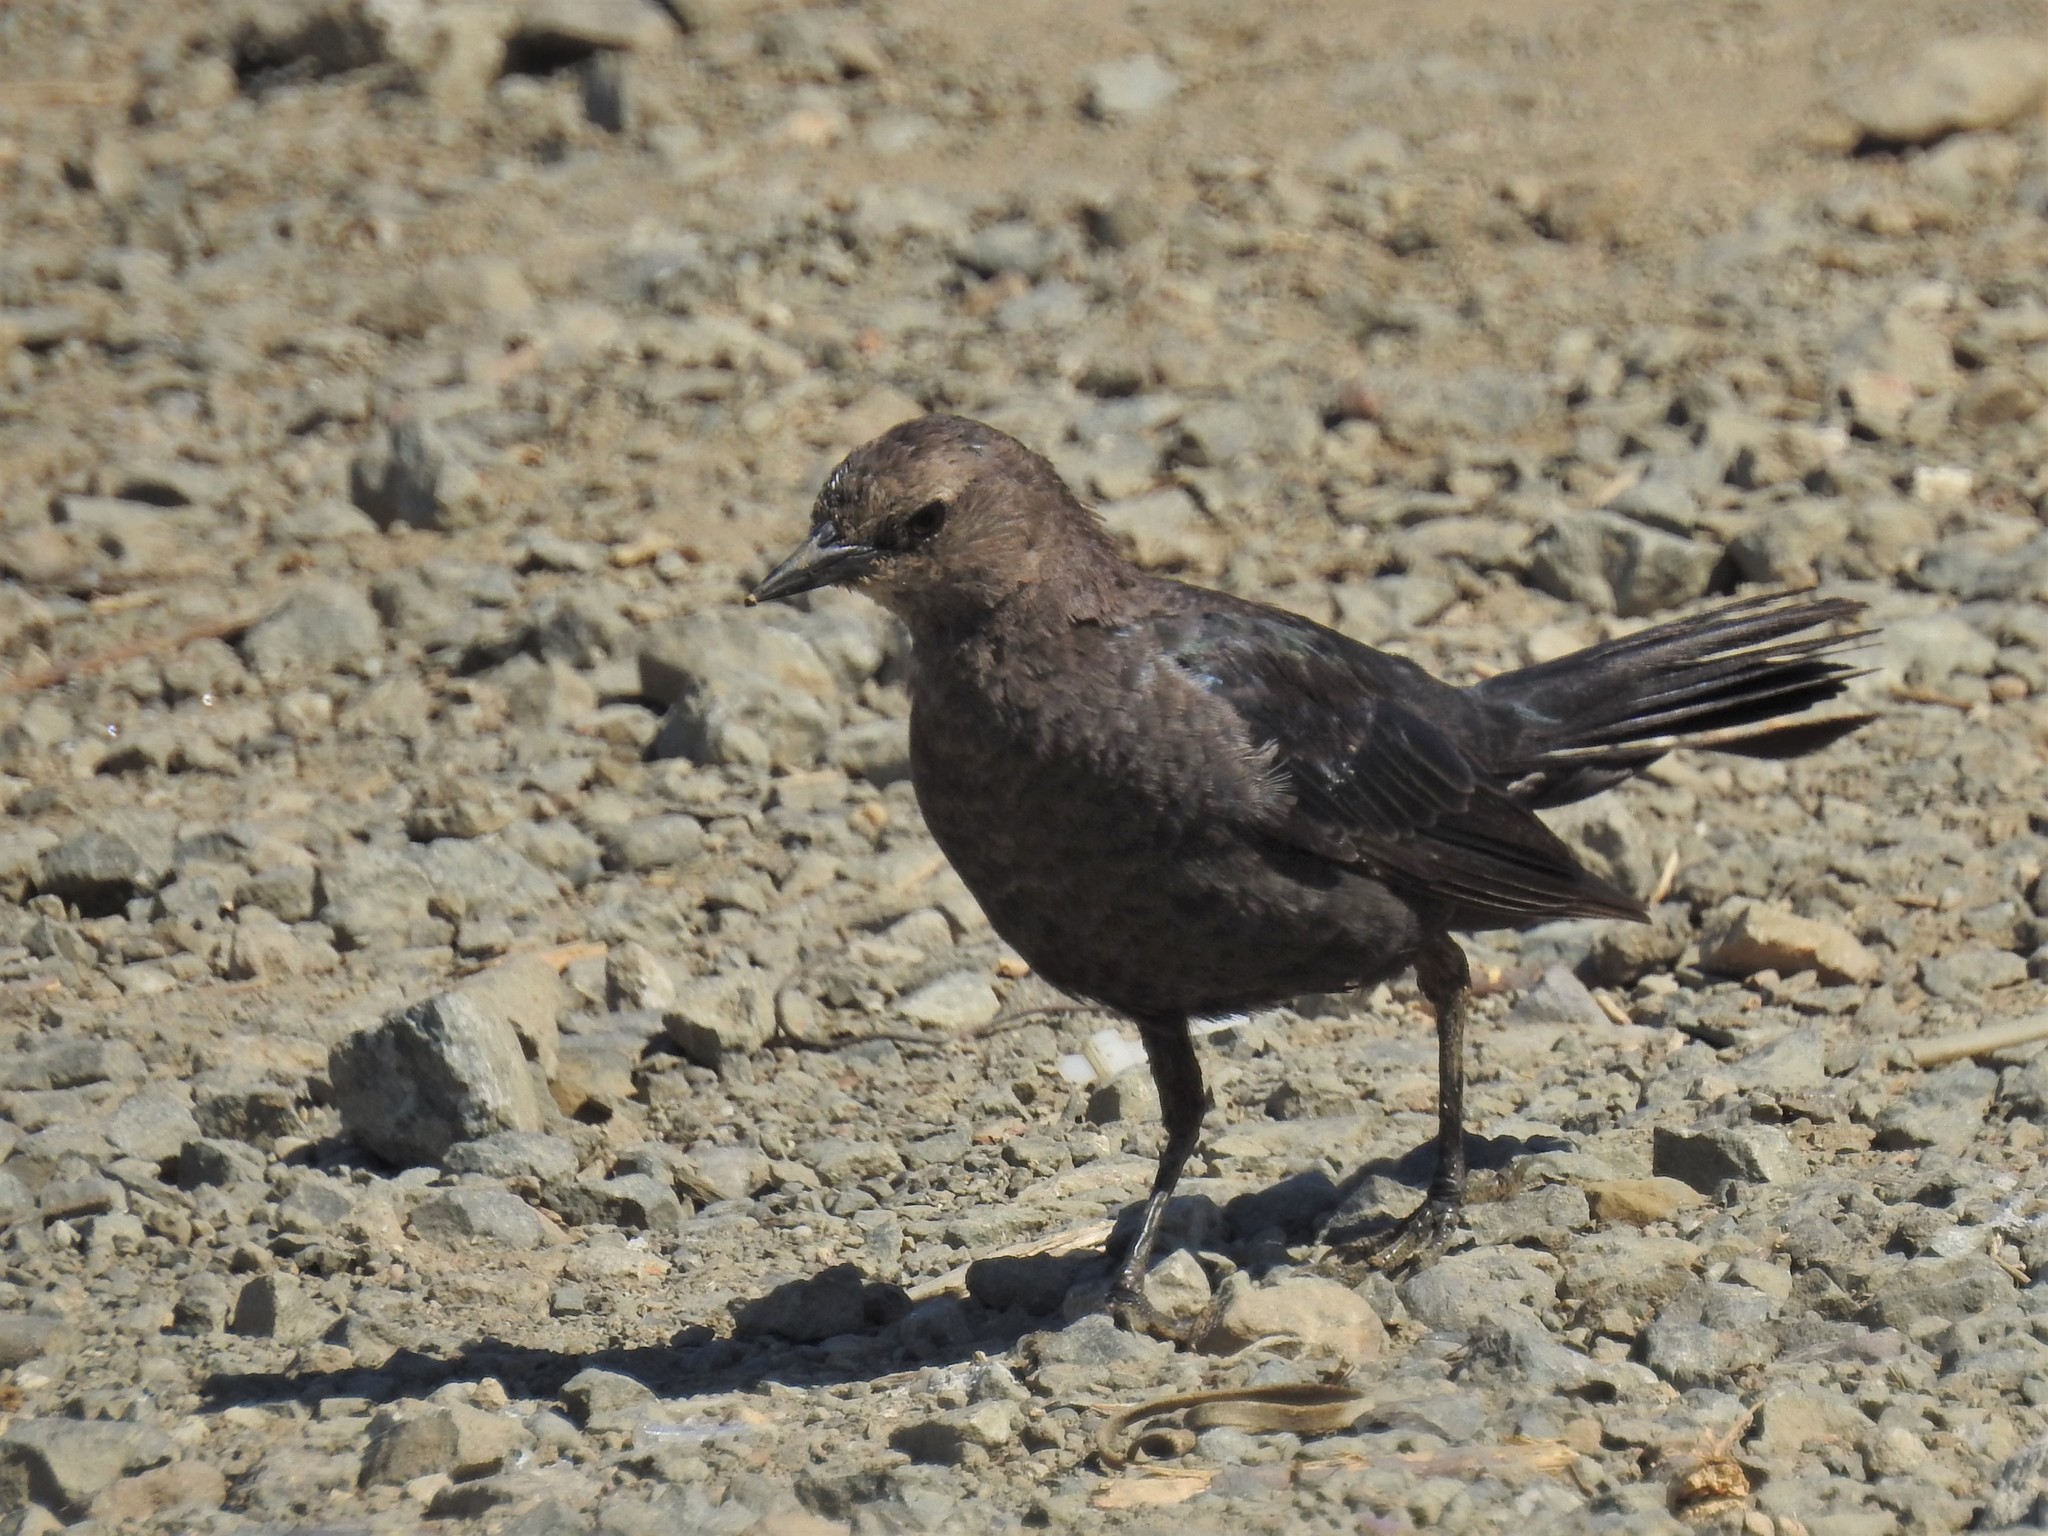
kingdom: Animalia
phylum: Chordata
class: Aves
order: Passeriformes
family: Icteridae
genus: Euphagus
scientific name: Euphagus cyanocephalus
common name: Brewer's blackbird
